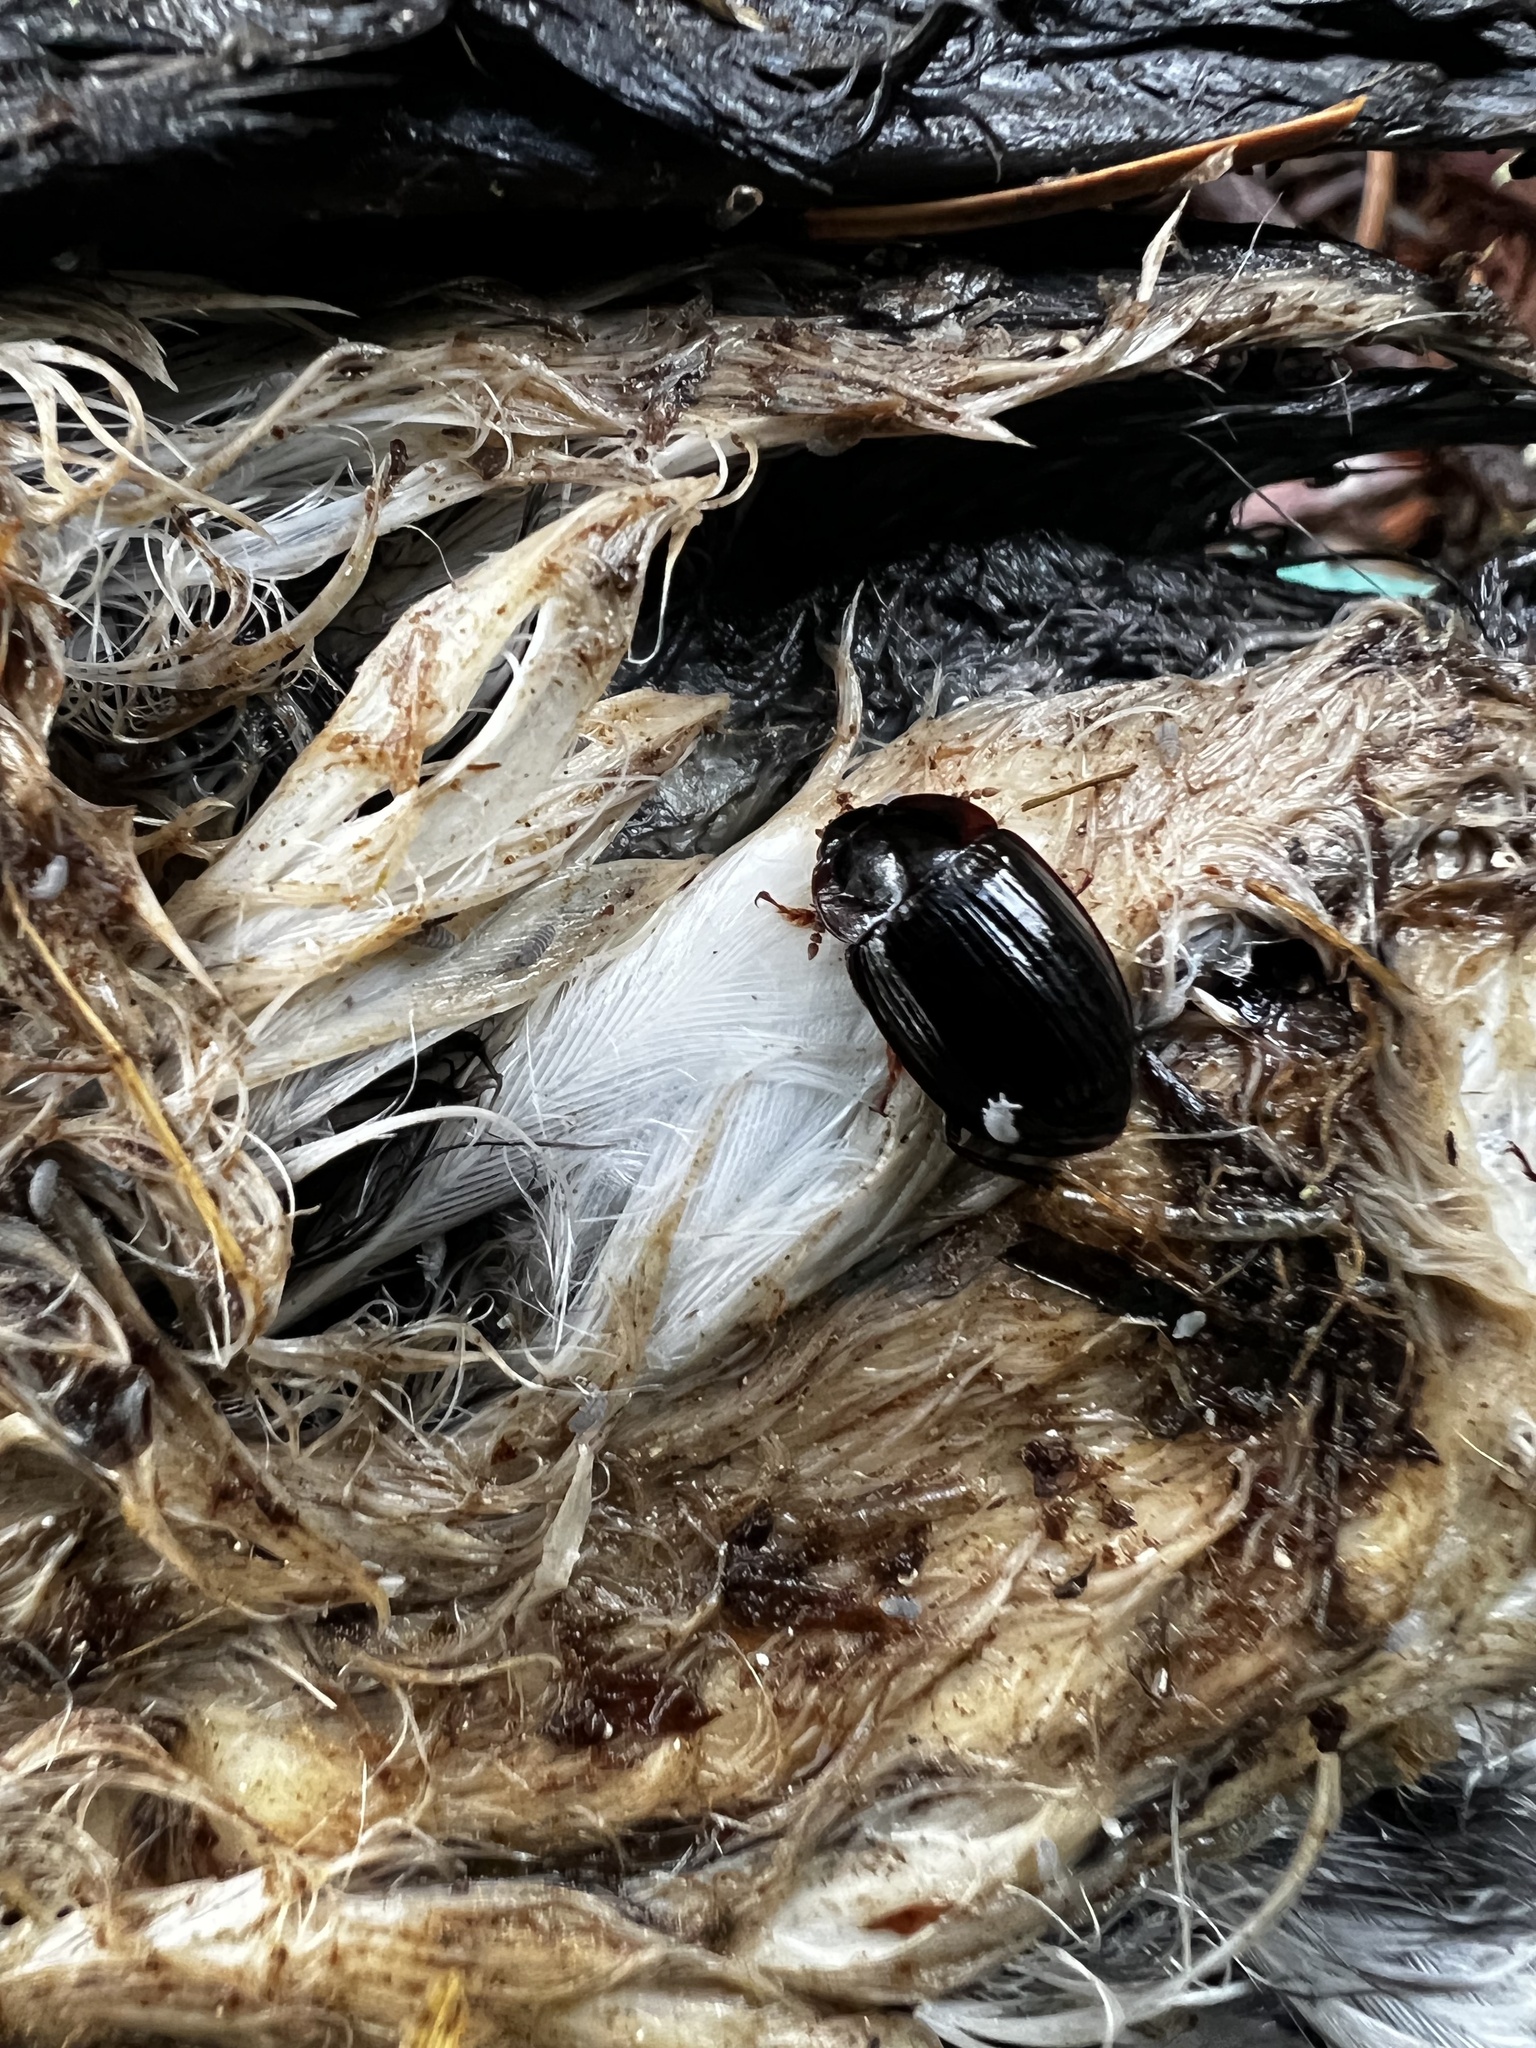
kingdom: Animalia
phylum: Arthropoda
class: Insecta
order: Coleoptera
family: Agyrtidae
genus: Necrophilus
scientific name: Necrophilus hydrophiloides
